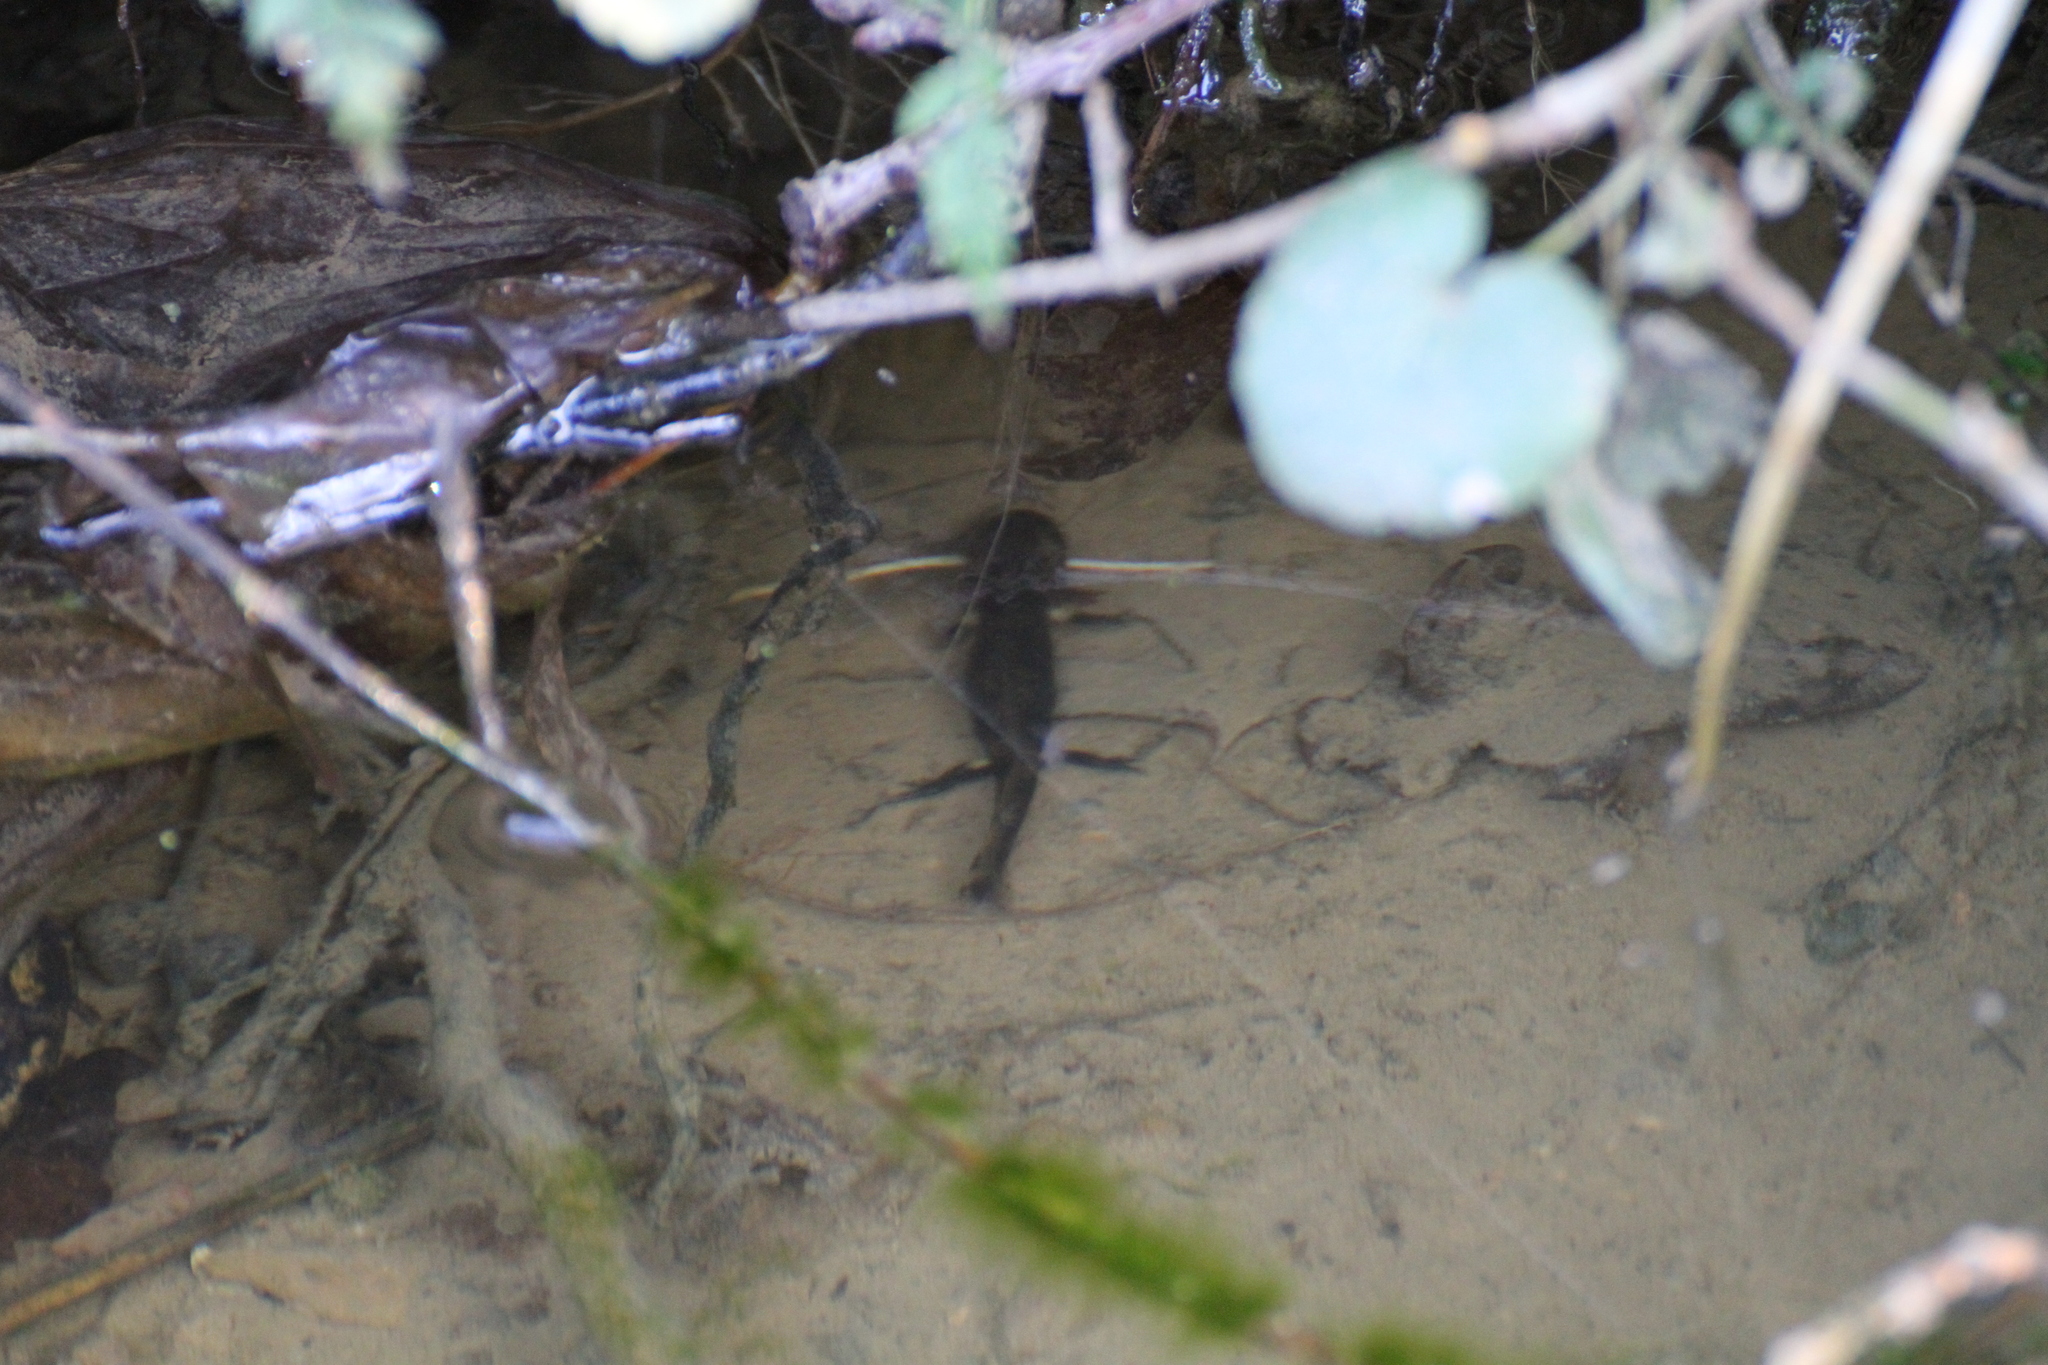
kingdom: Animalia
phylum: Chordata
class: Amphibia
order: Caudata
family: Salamandridae
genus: Salamandra
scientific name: Salamandra salamandra
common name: Fire salamander
